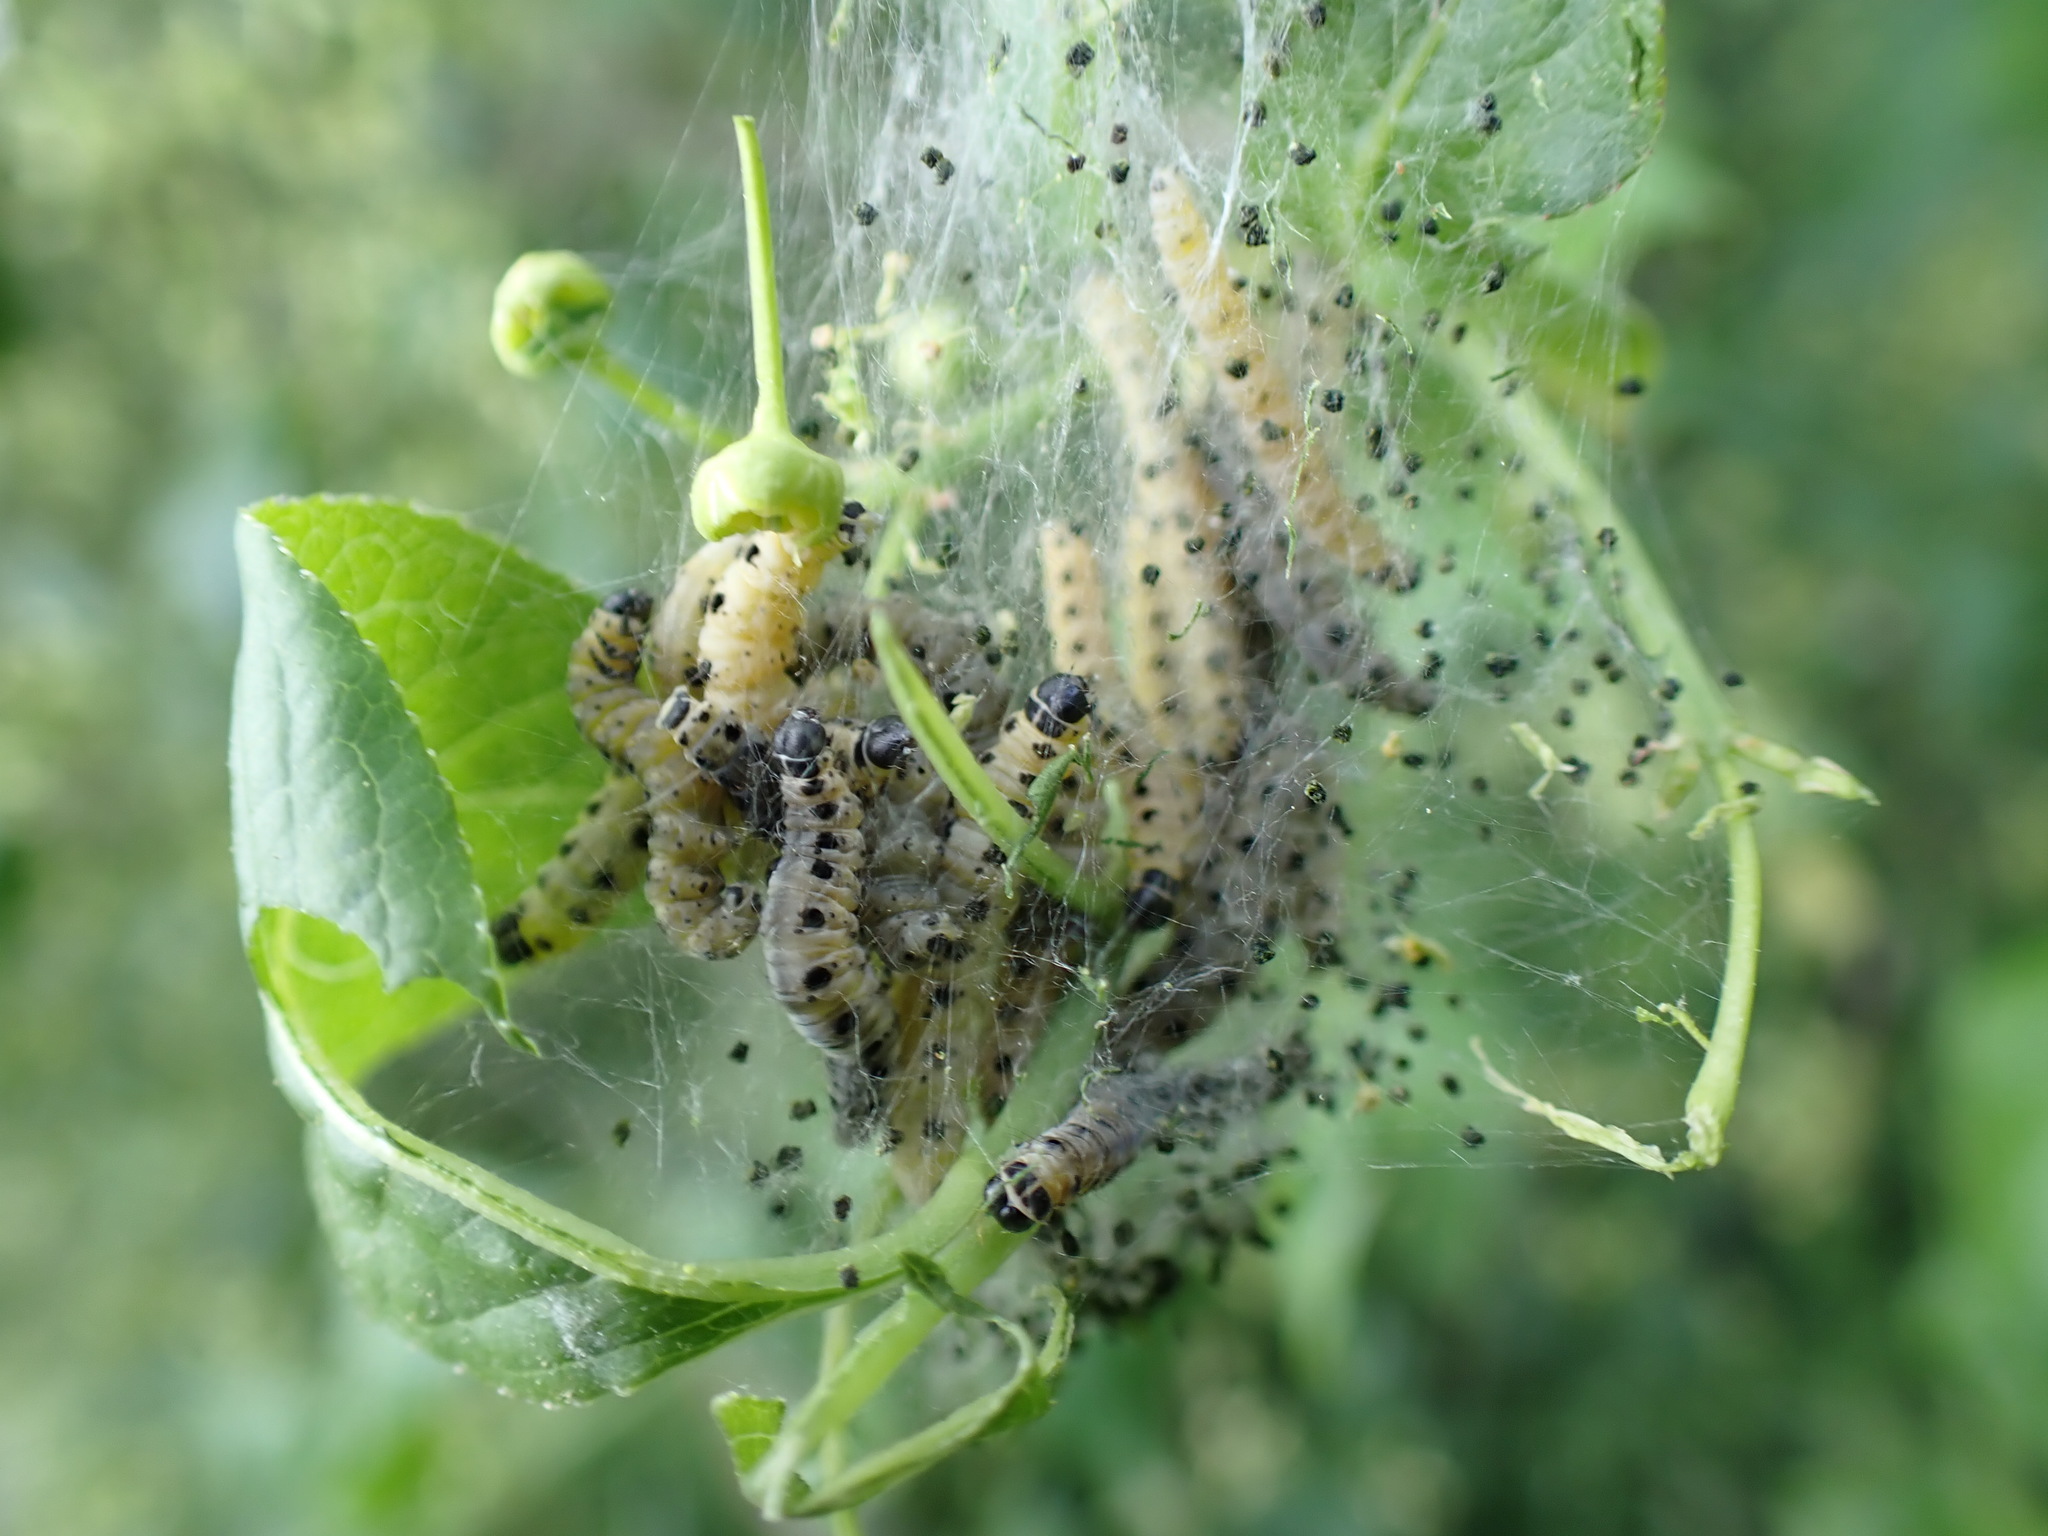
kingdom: Animalia
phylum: Arthropoda
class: Insecta
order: Lepidoptera
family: Yponomeutidae
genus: Yponomeuta
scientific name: Yponomeuta cagnagellus
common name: Spindle ermine
